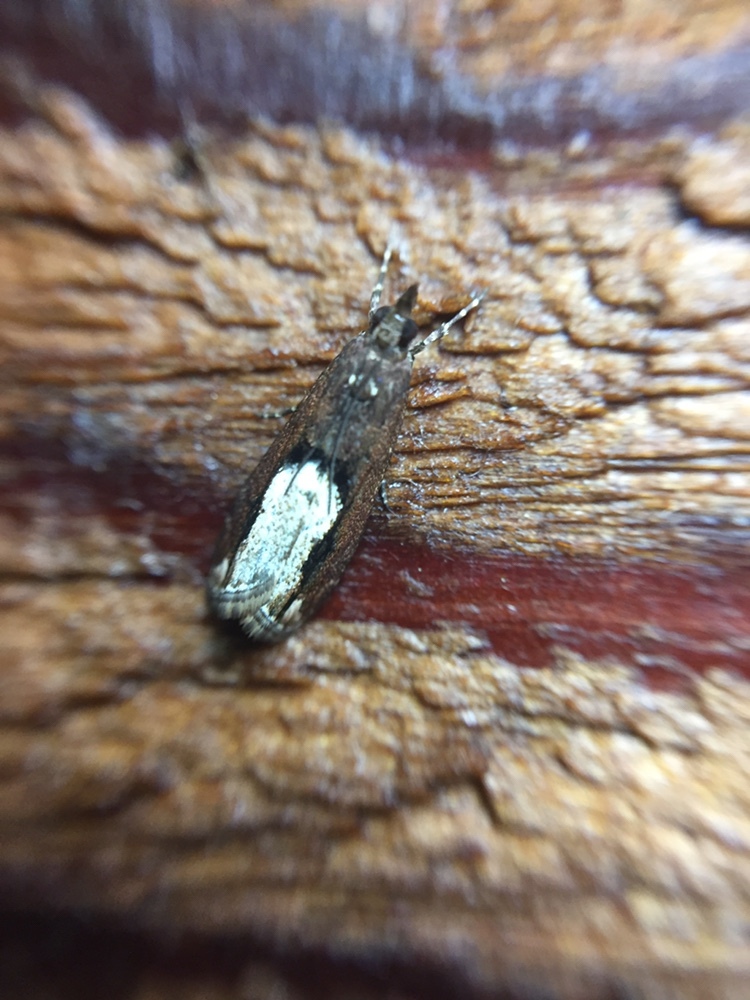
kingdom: Animalia
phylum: Arthropoda
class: Insecta
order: Lepidoptera
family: Crambidae
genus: Eudonia
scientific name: Eudonia hemiplaca
